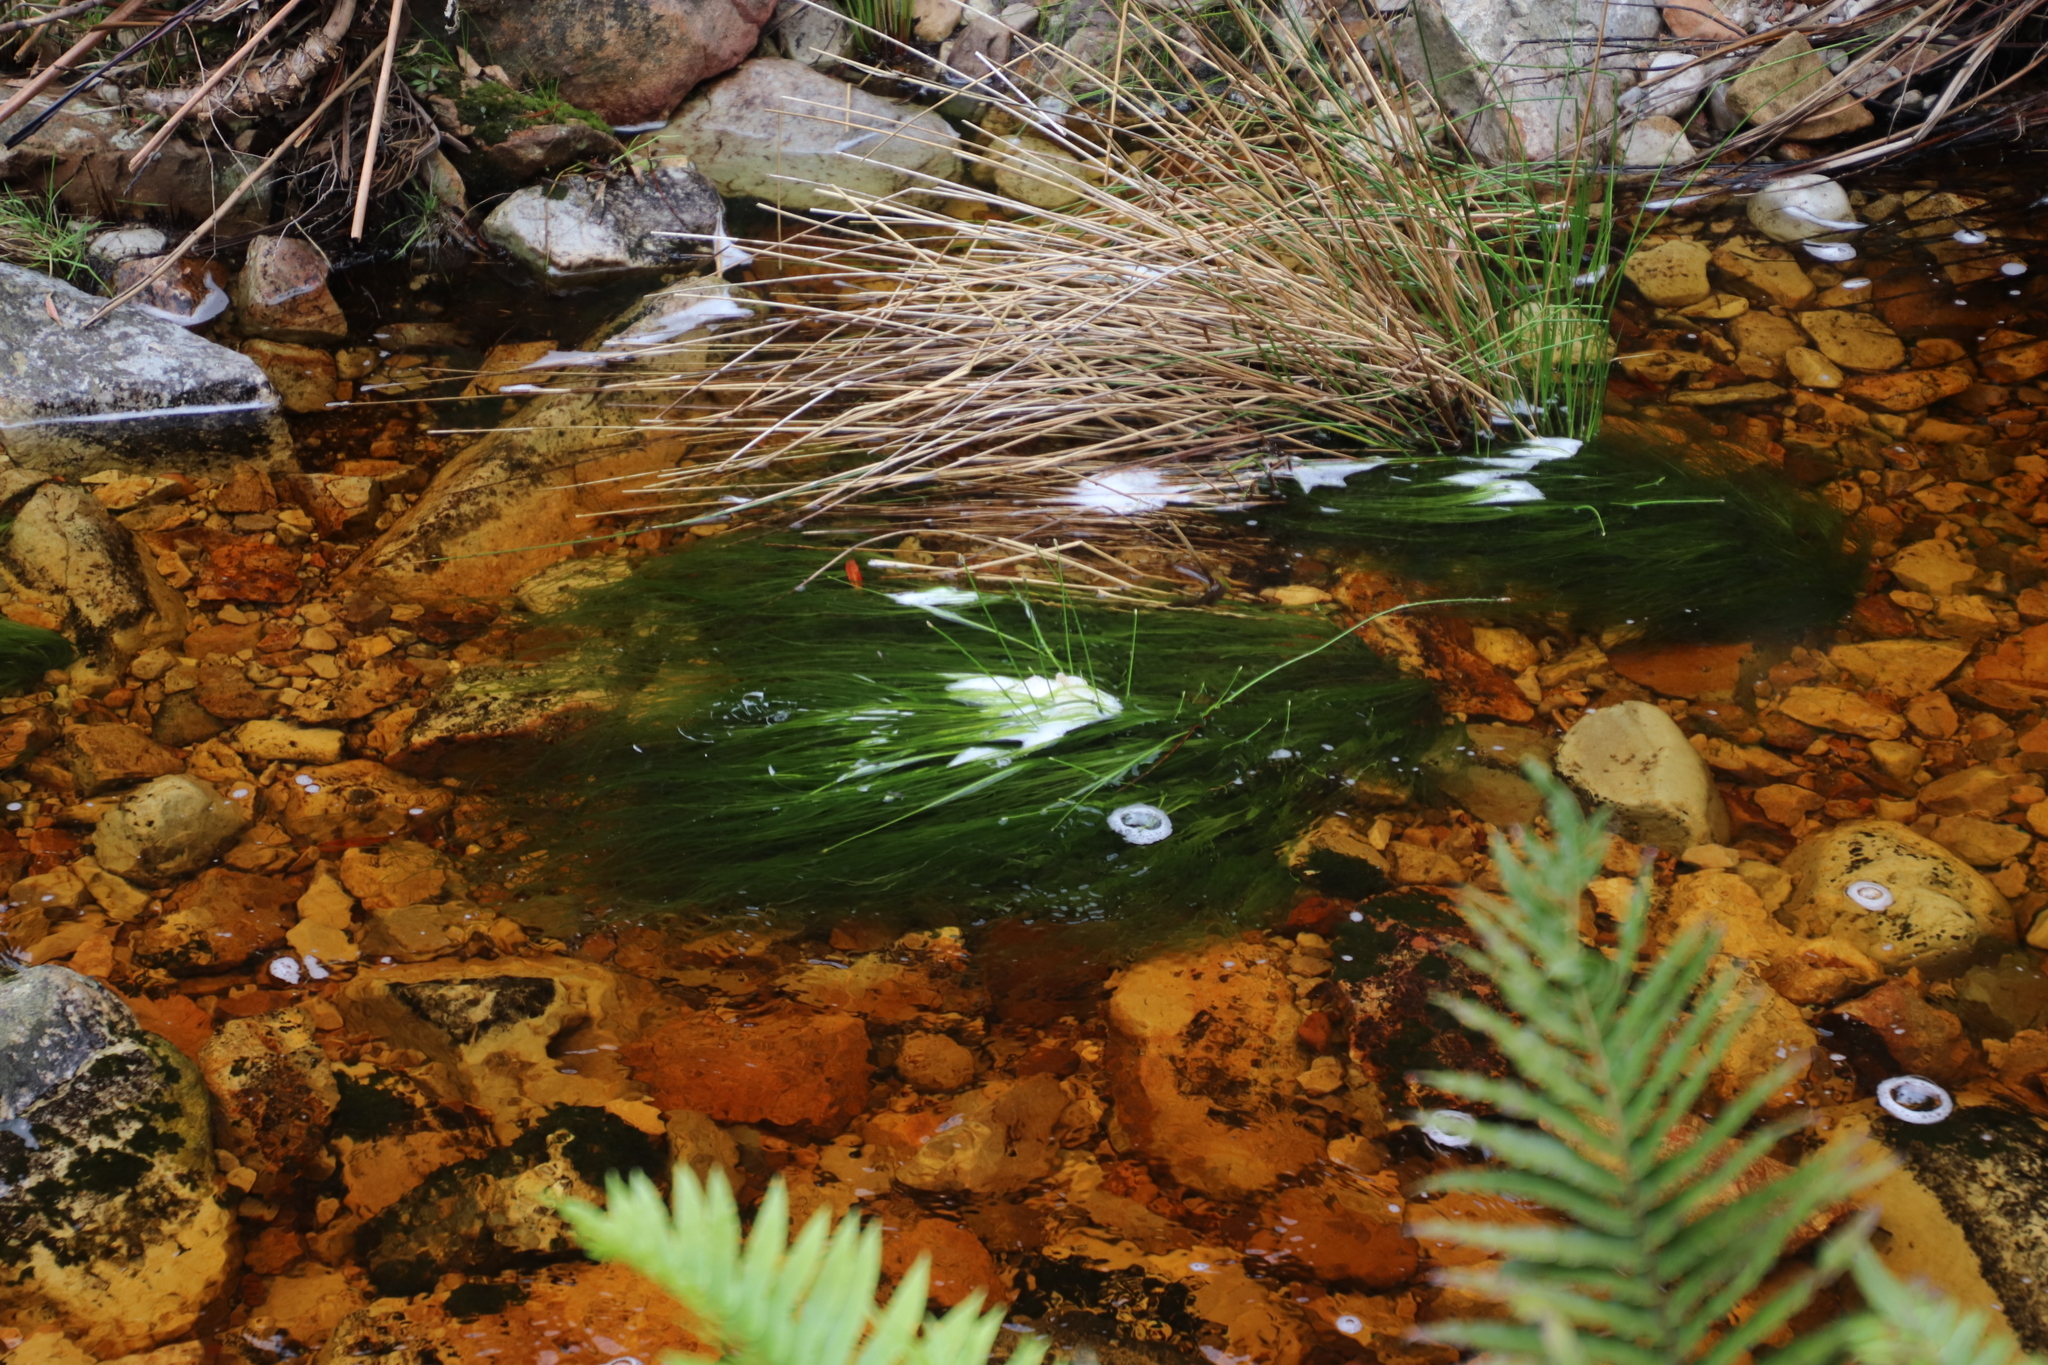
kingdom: Plantae
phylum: Tracheophyta
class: Liliopsida
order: Poales
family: Cyperaceae
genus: Isolepis
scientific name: Isolepis digitata
